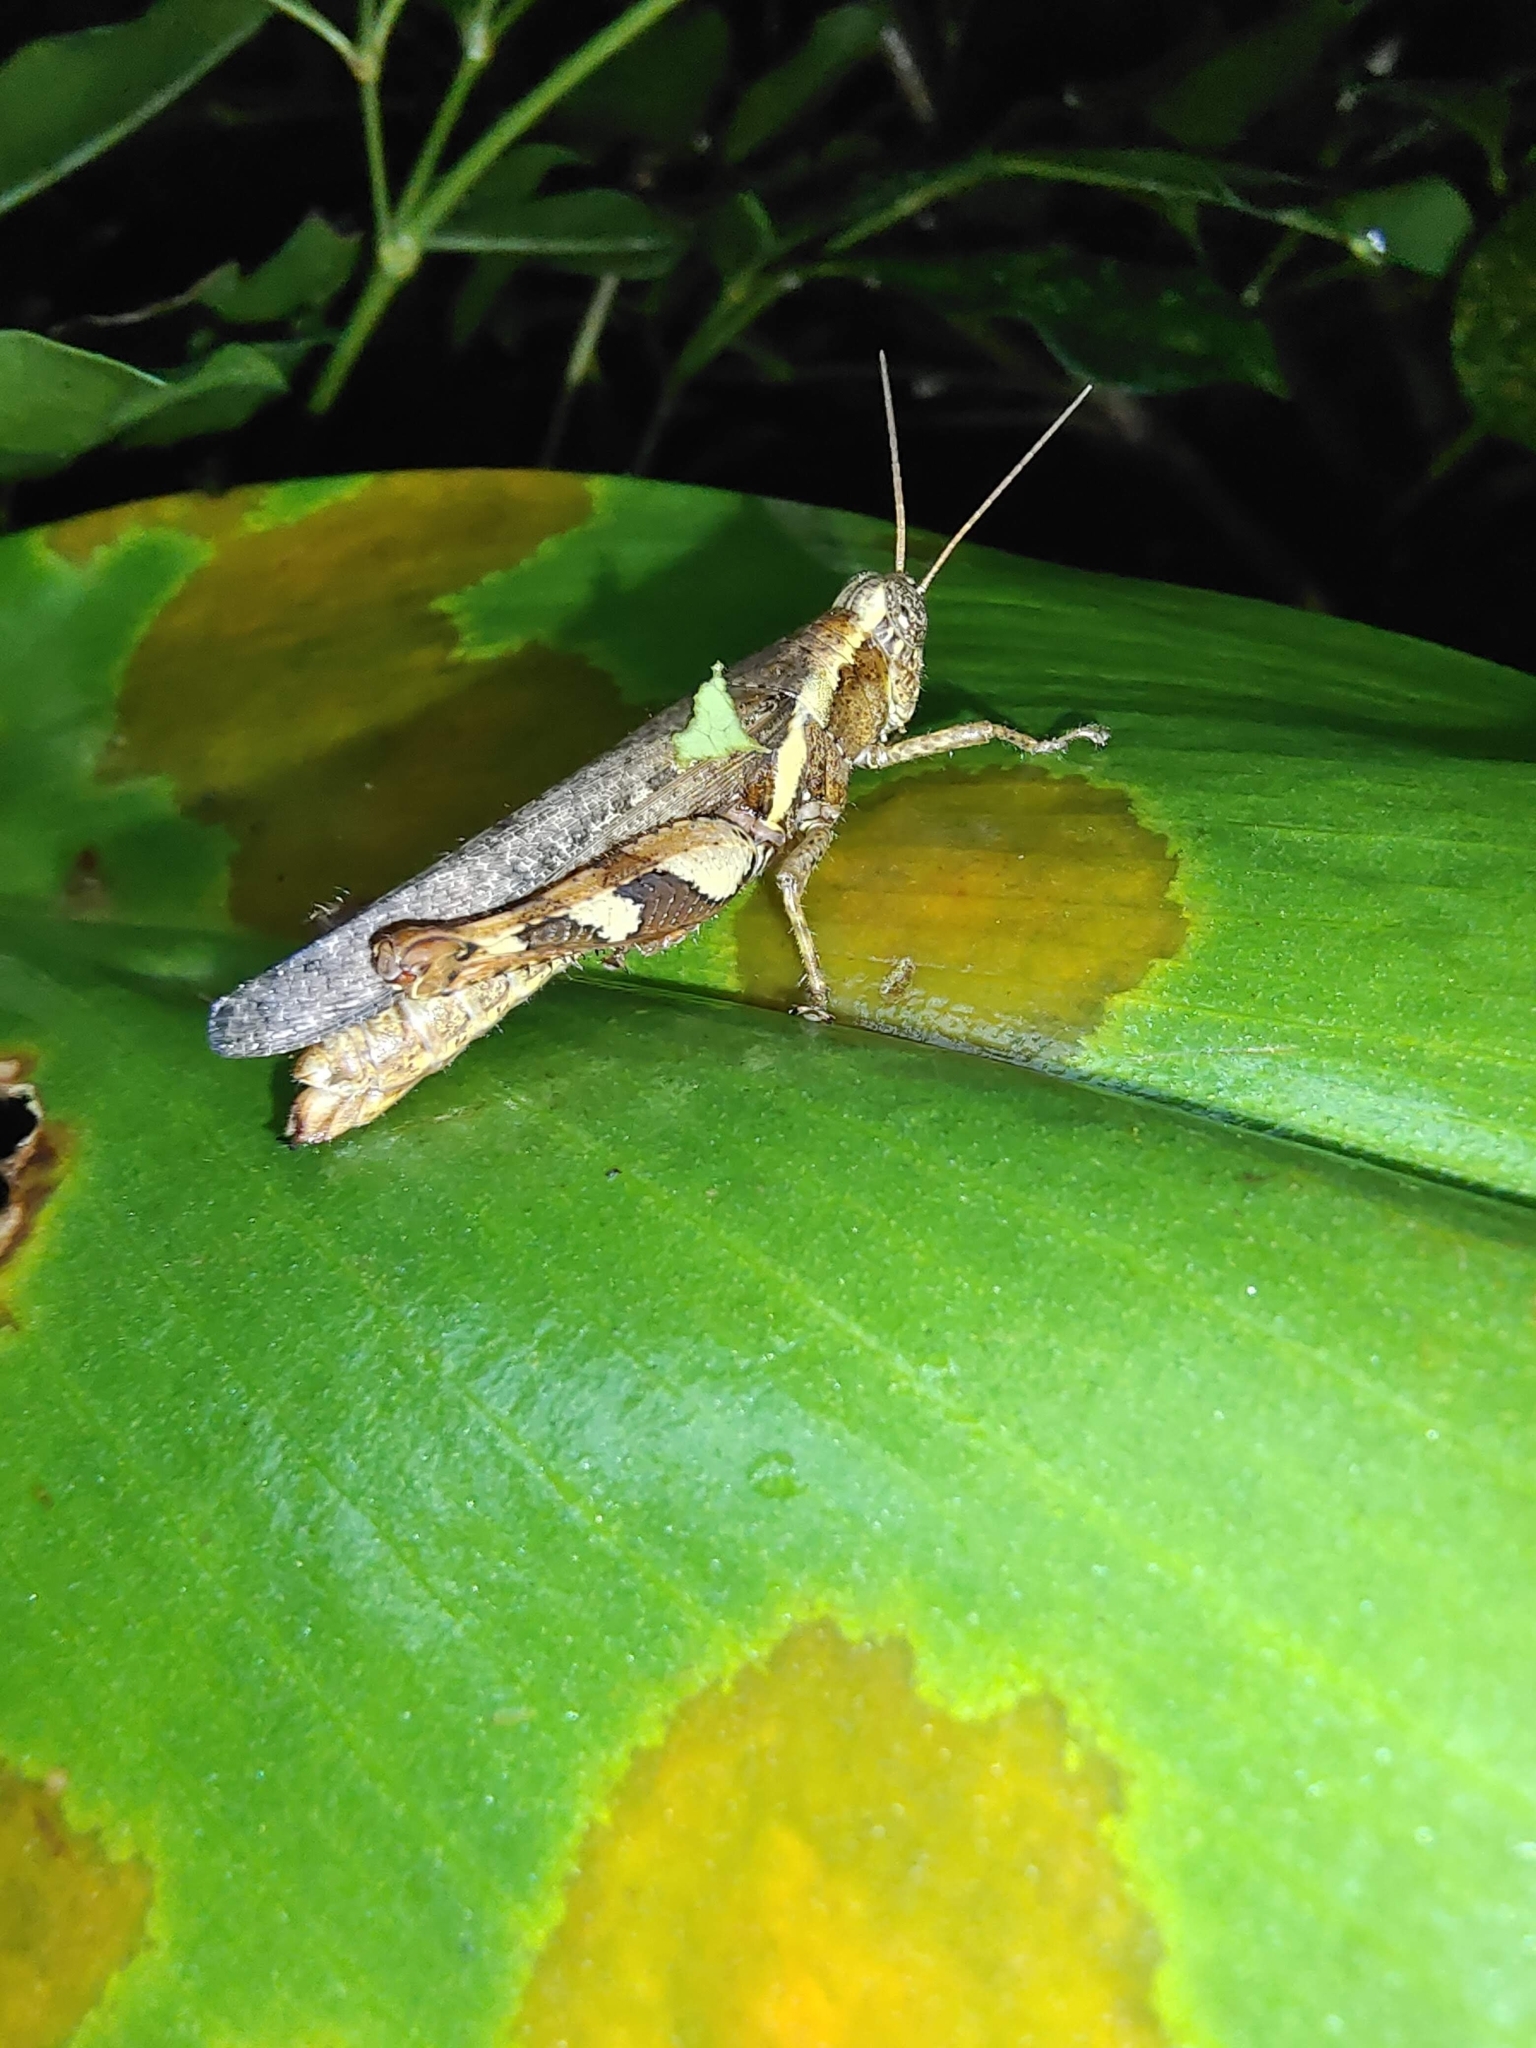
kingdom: Animalia
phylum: Arthropoda
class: Insecta
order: Orthoptera
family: Acrididae
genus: Xenocatantops
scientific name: Xenocatantops humile
